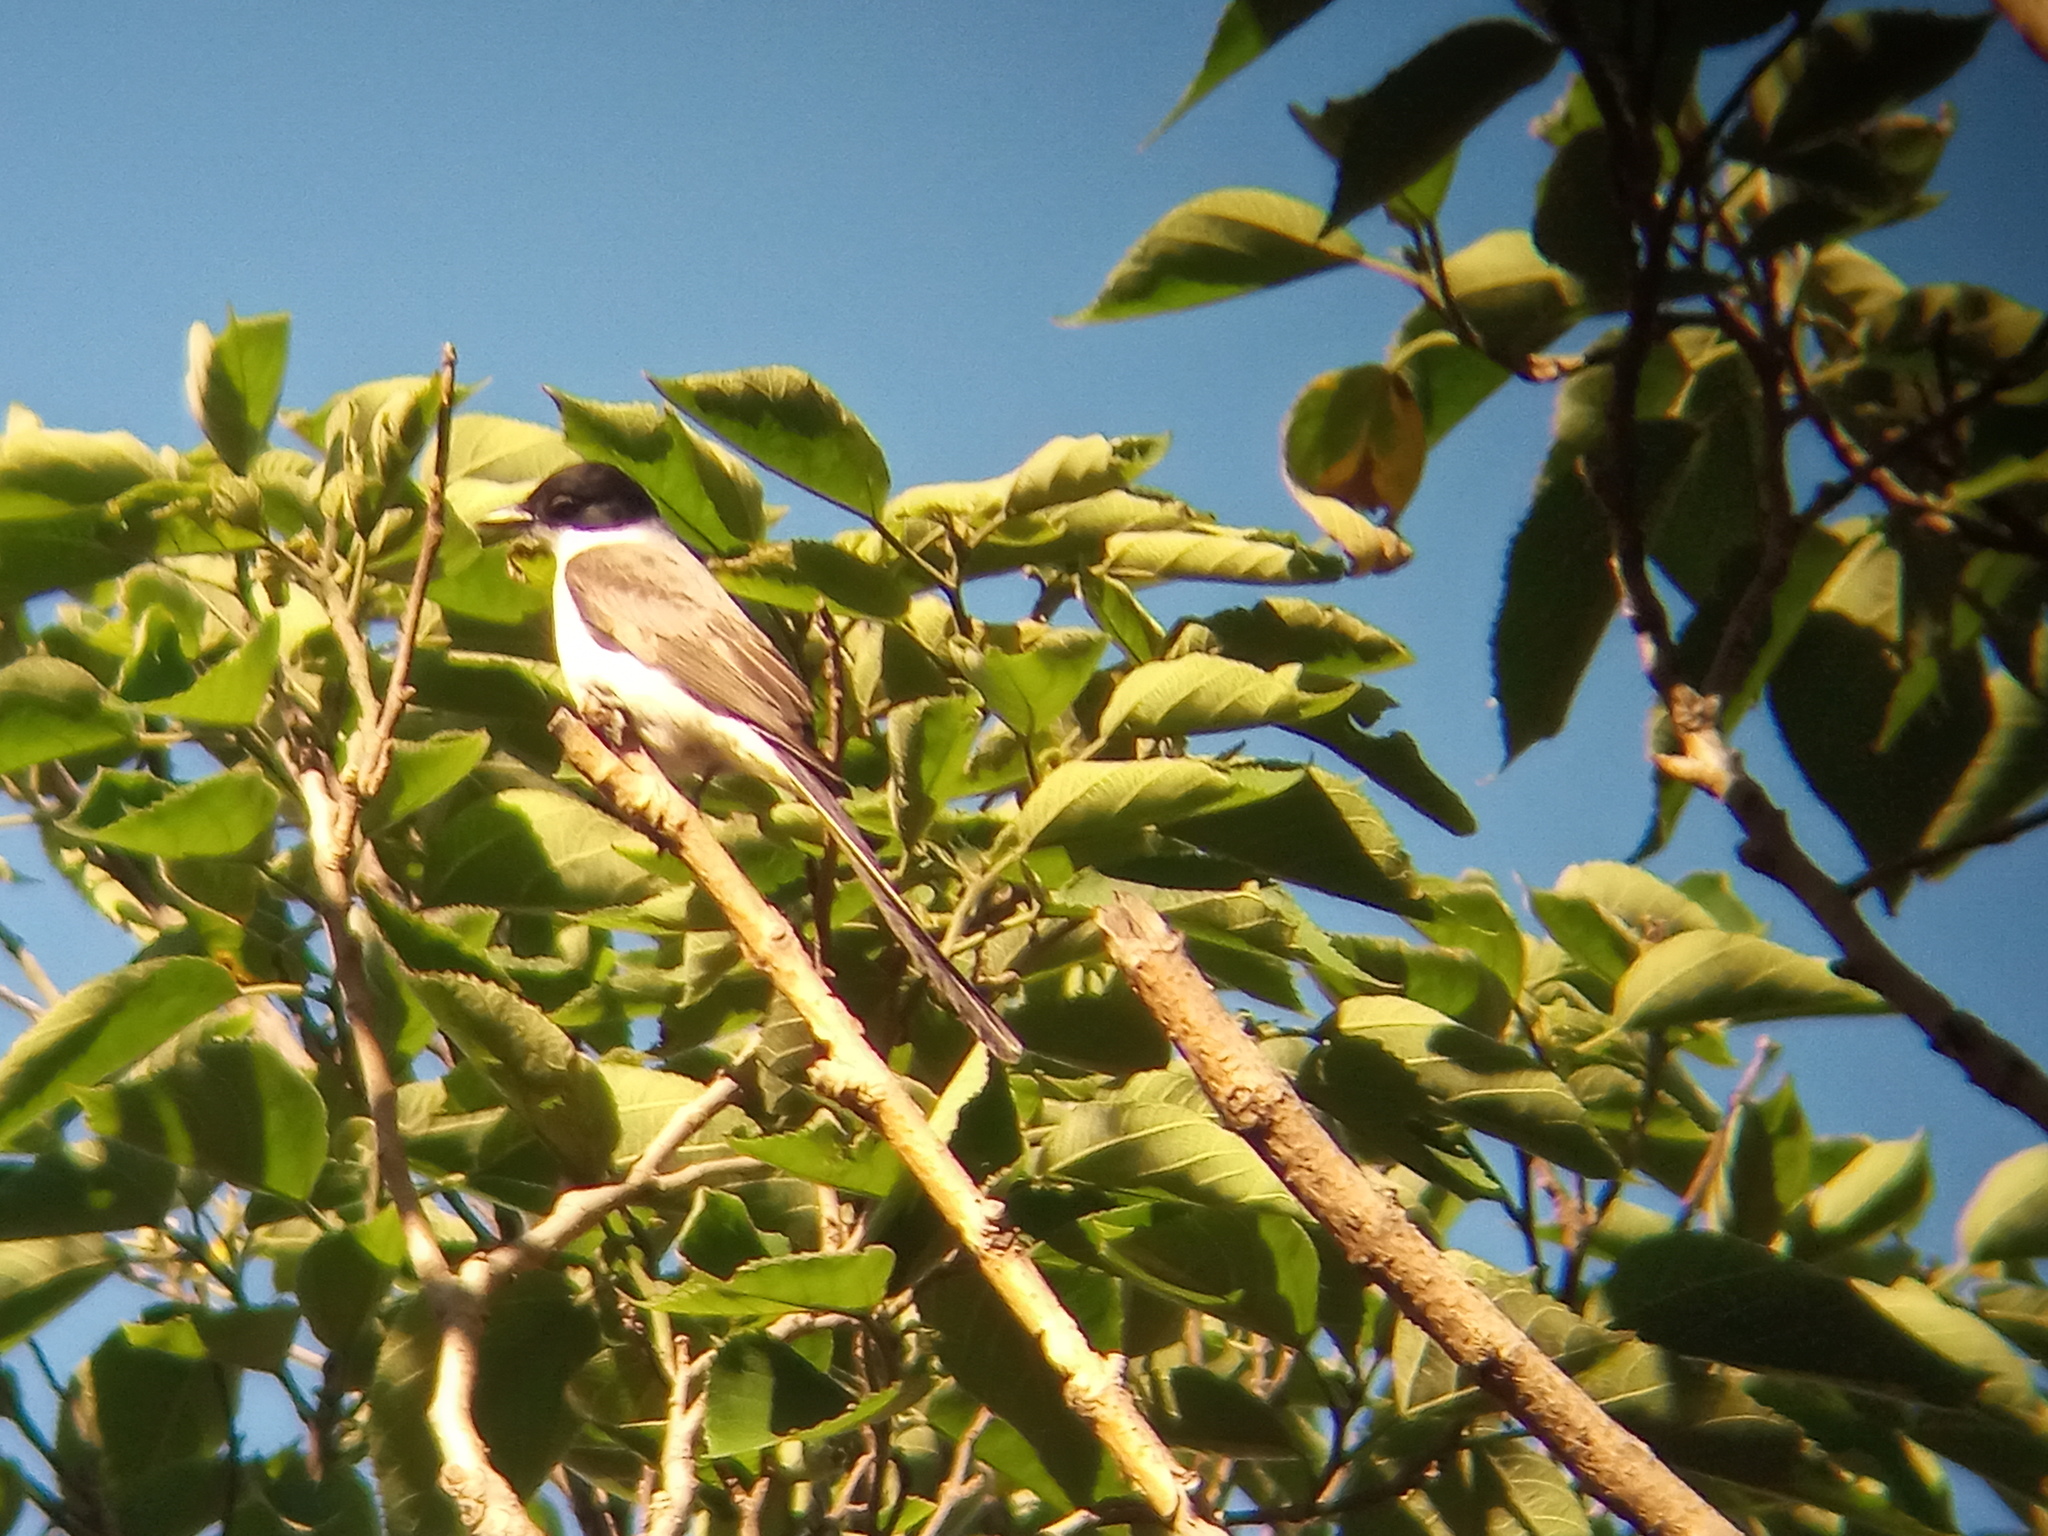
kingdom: Animalia
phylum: Chordata
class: Aves
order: Passeriformes
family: Tyrannidae
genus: Tyrannus
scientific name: Tyrannus savana
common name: Fork-tailed flycatcher
